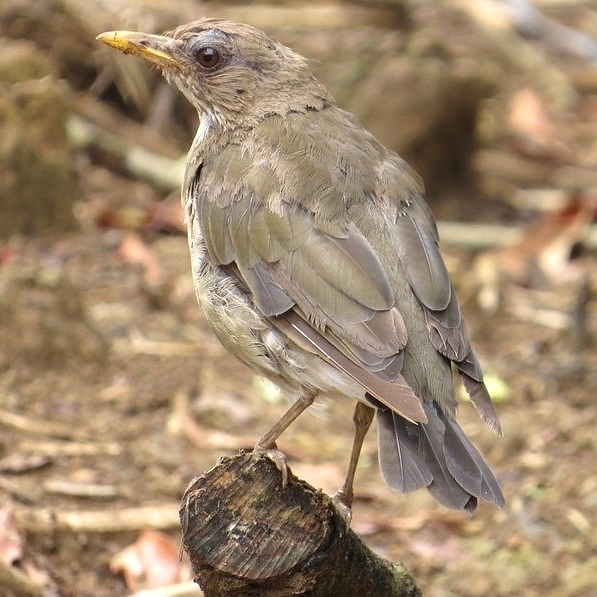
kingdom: Animalia
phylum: Chordata
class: Aves
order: Passeriformes
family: Turdidae
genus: Turdus
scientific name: Turdus amaurochalinus
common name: Creamy-bellied thrush
